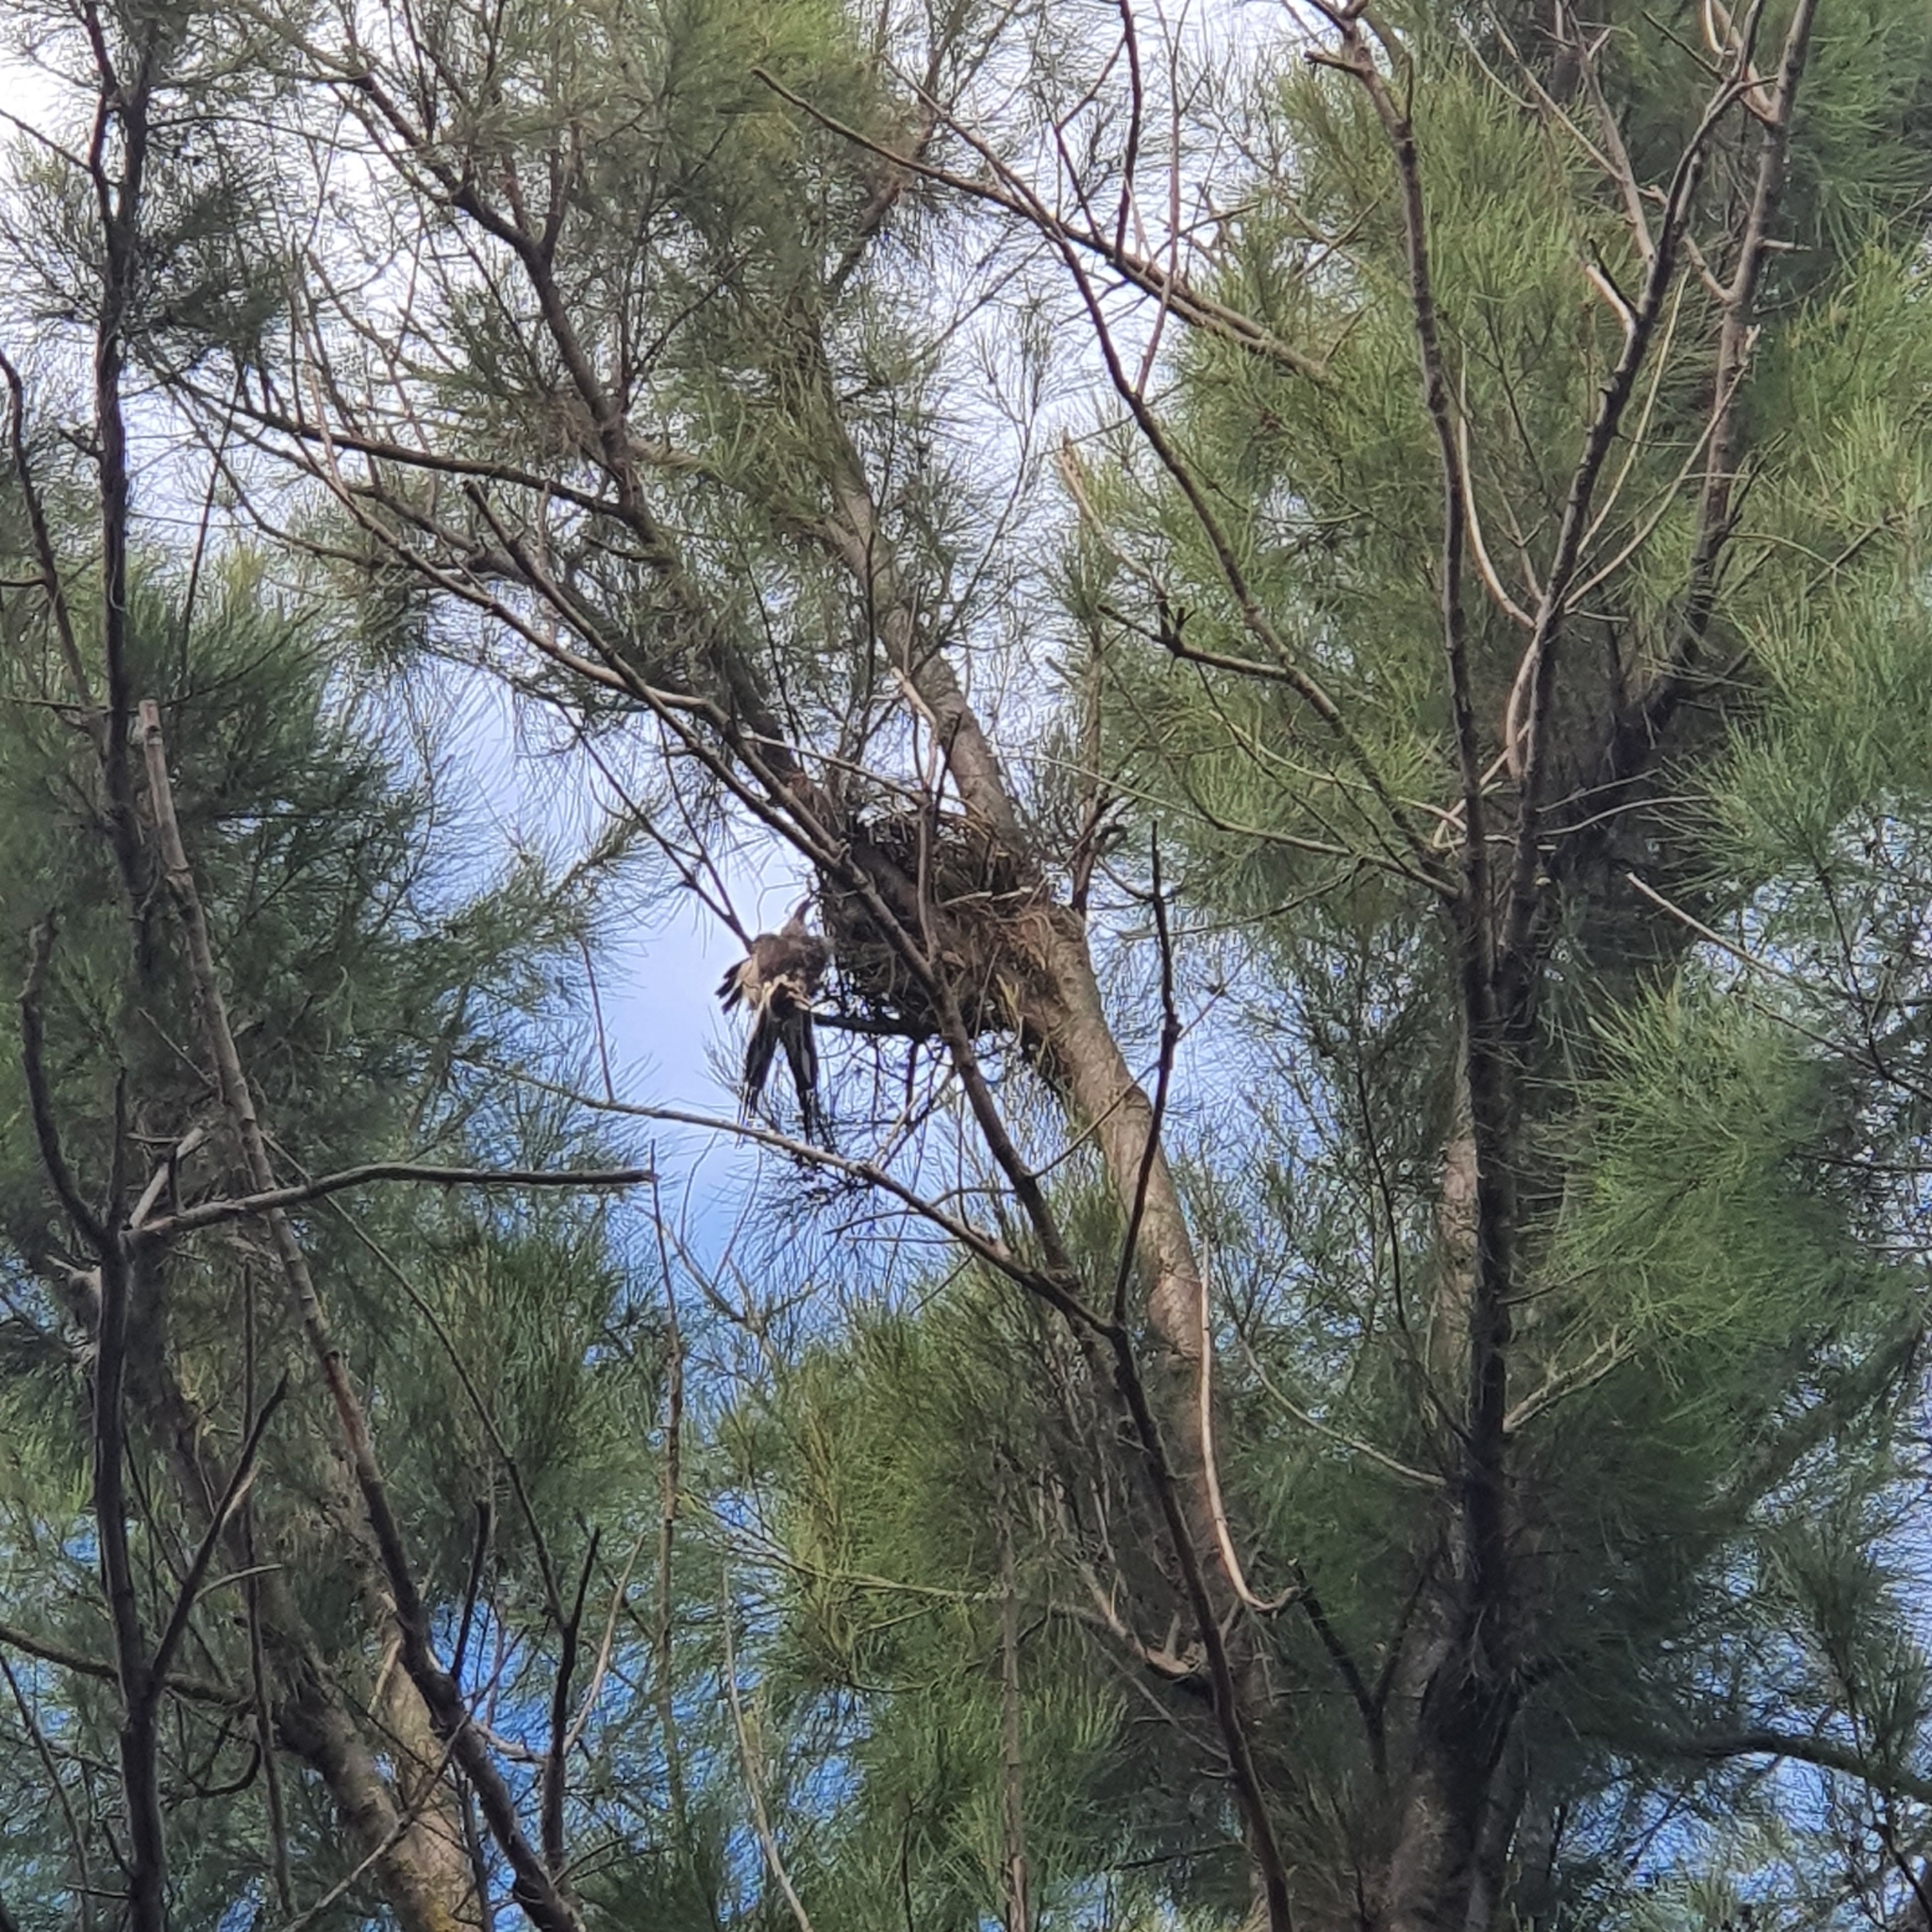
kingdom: Animalia
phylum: Chordata
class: Aves
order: Passeriformes
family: Cracticidae
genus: Gymnorhina
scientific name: Gymnorhina tibicen
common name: Australian magpie
